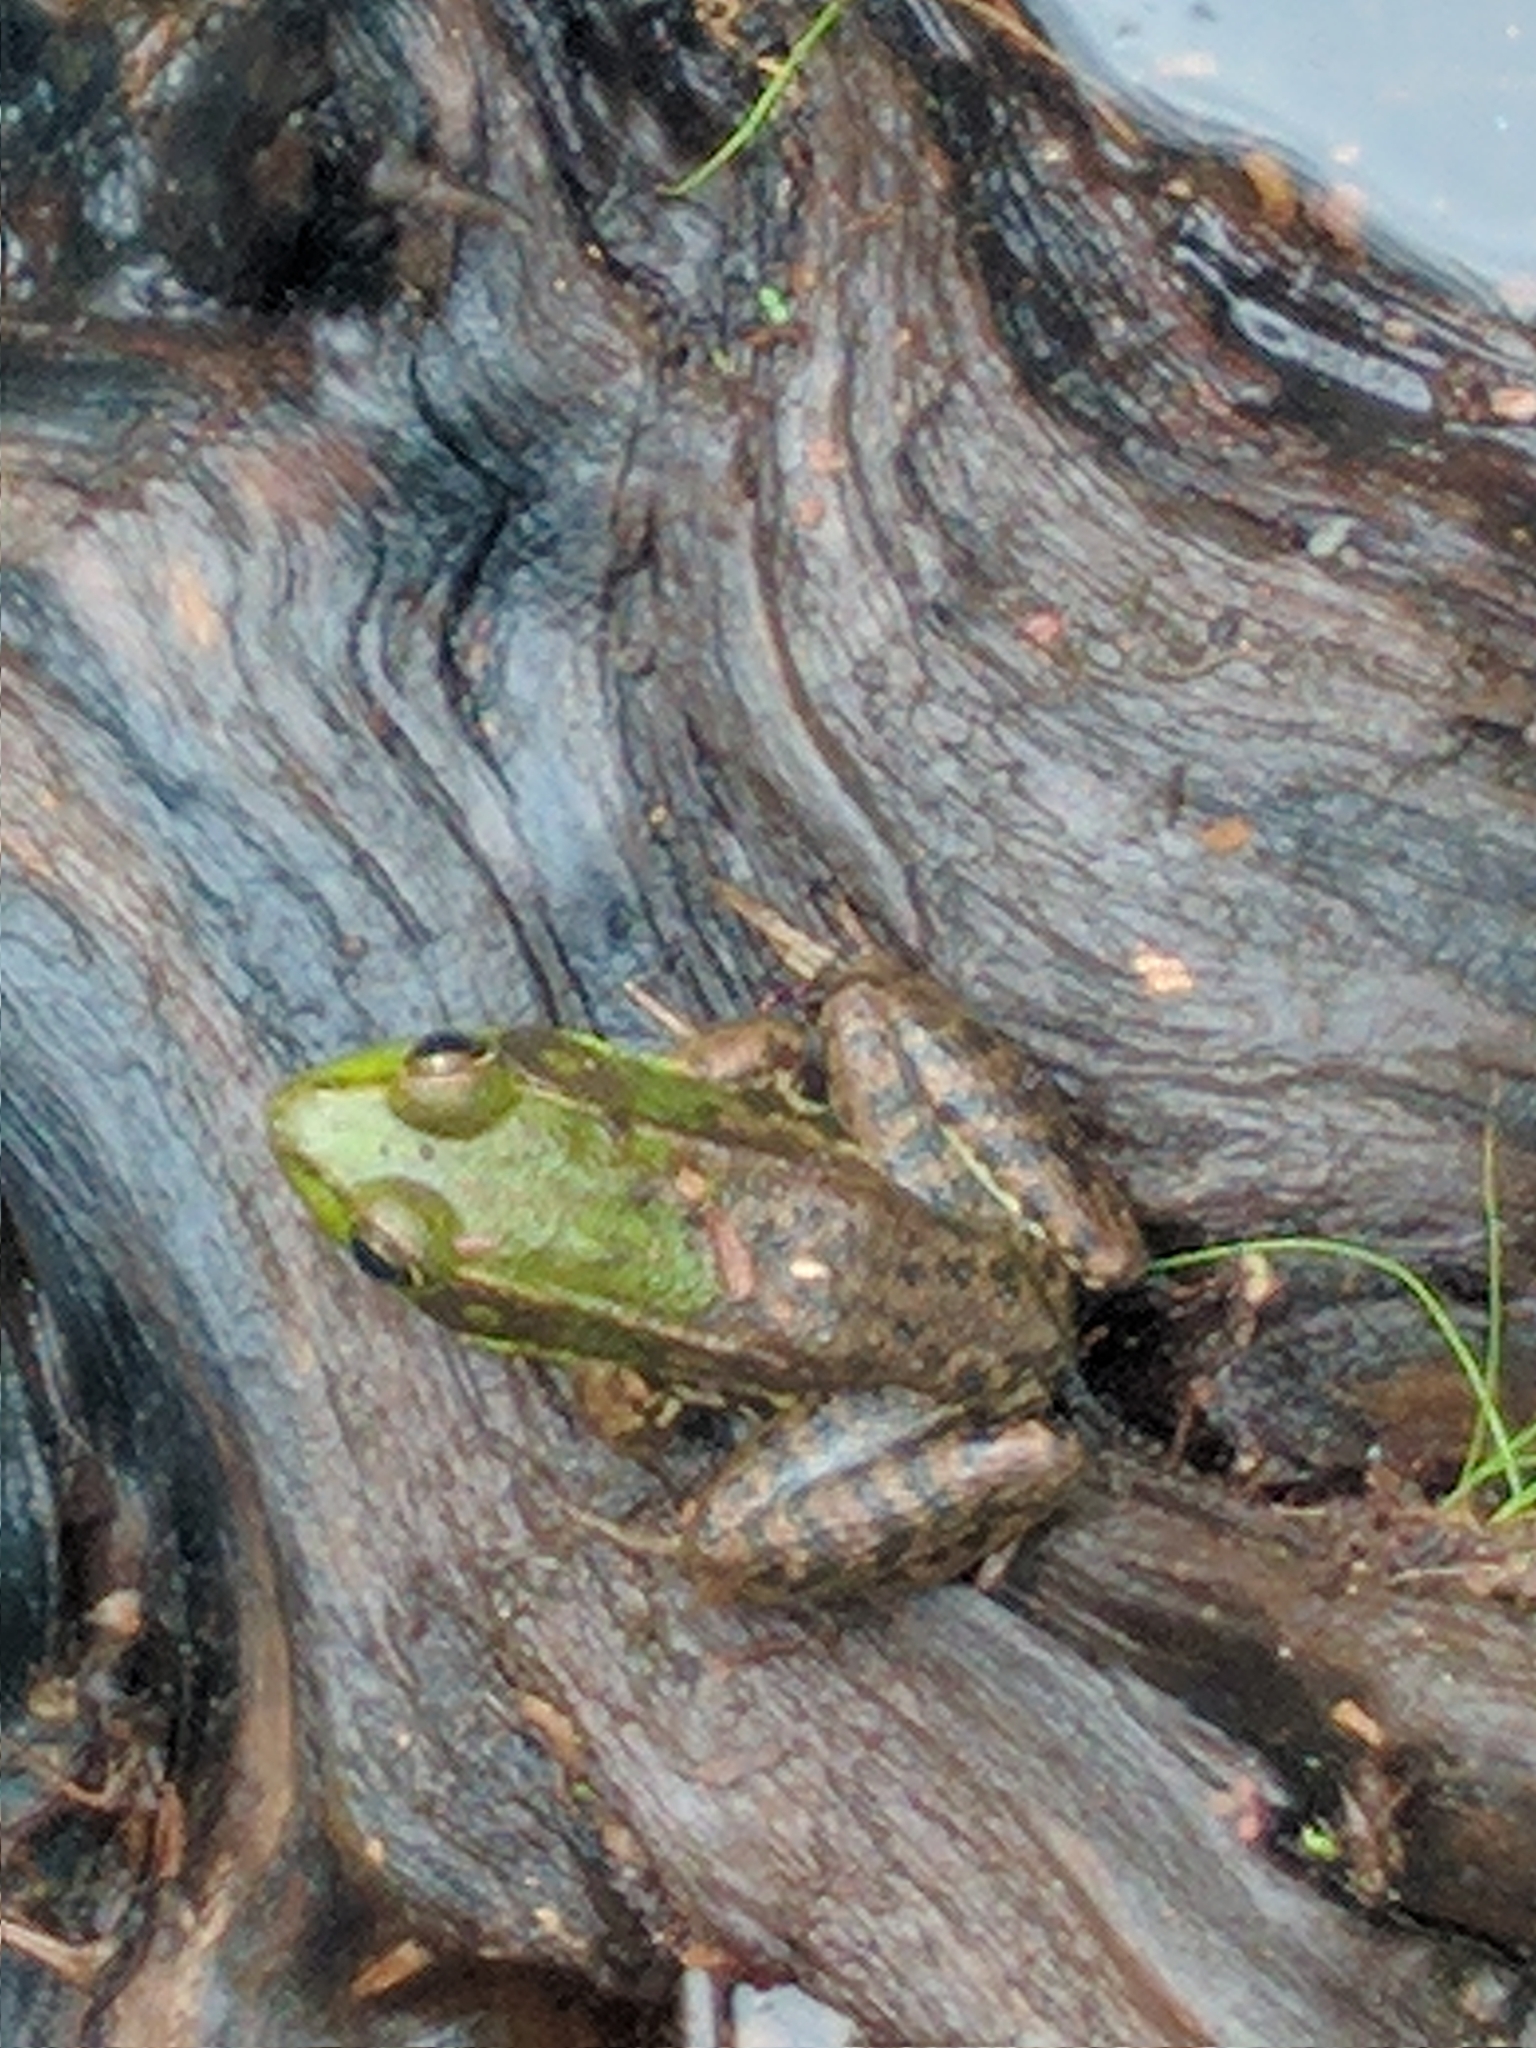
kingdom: Animalia
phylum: Chordata
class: Amphibia
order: Anura
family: Ranidae
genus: Lithobates
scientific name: Lithobates clamitans
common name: Green frog
